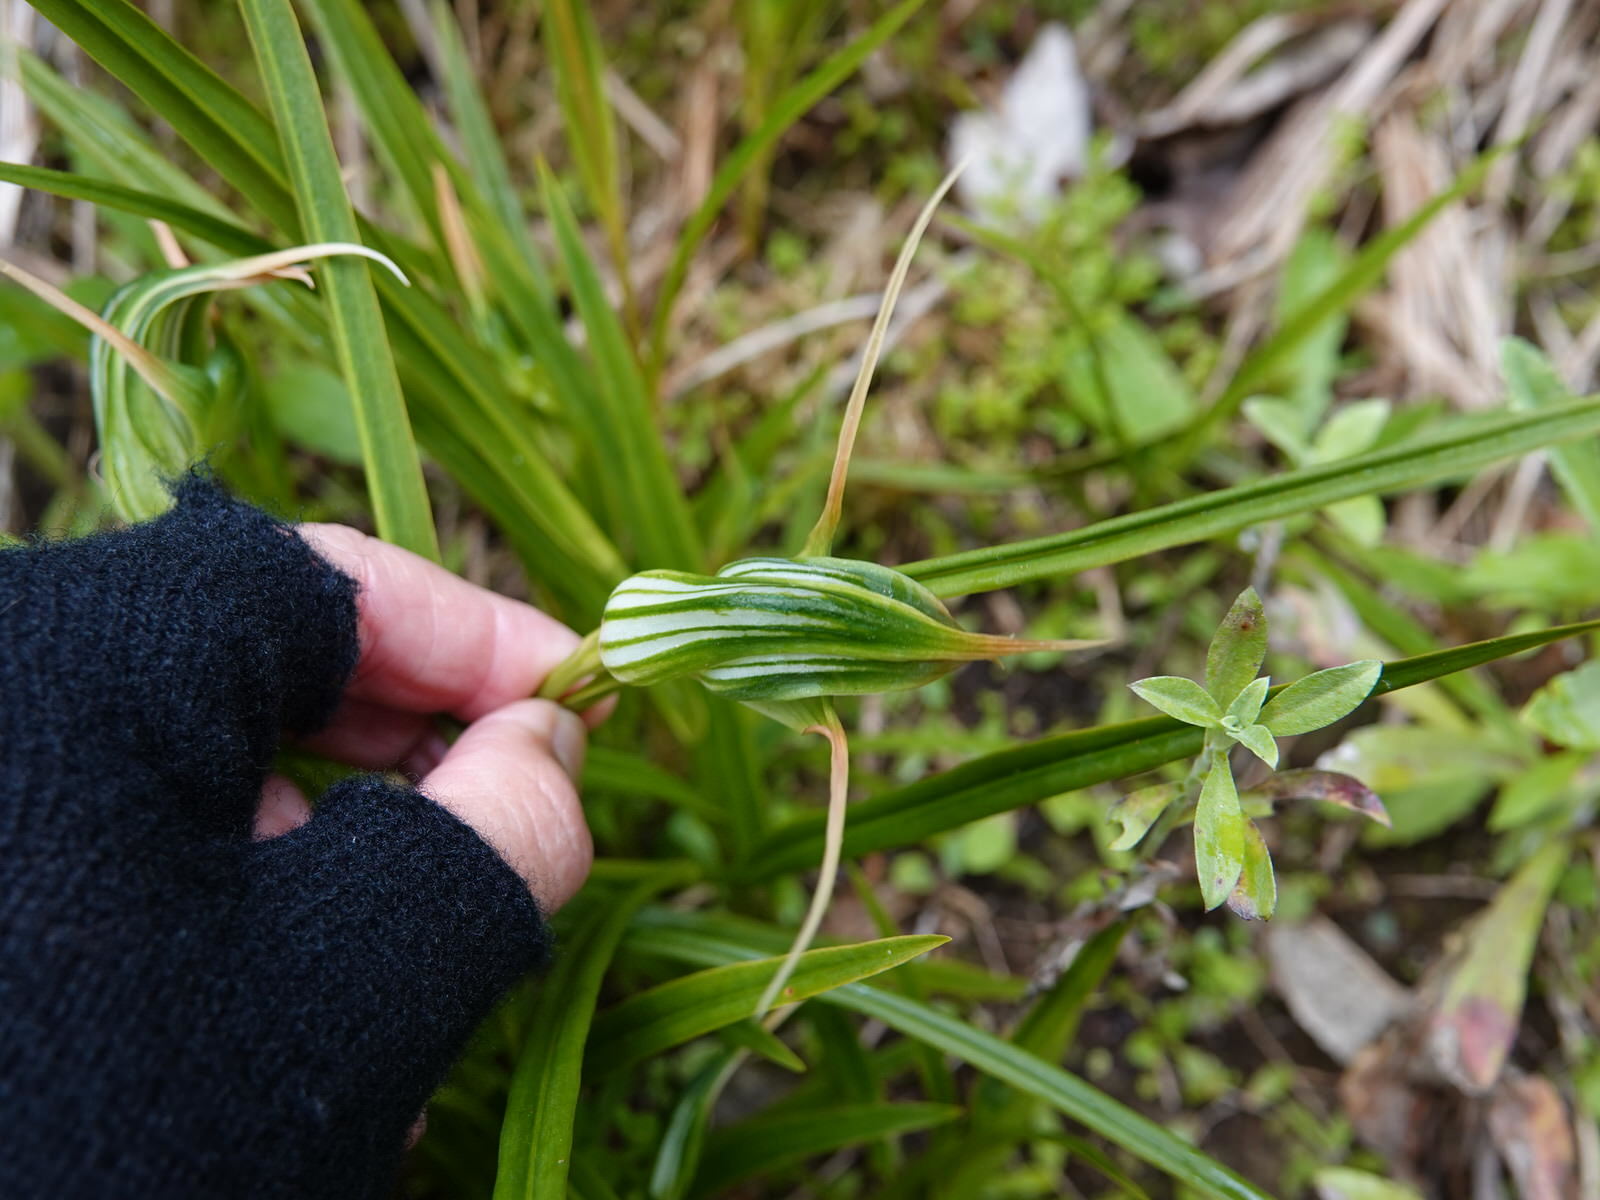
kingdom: Plantae
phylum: Tracheophyta
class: Liliopsida
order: Asparagales
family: Orchidaceae
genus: Pterostylis
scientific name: Pterostylis banksii
